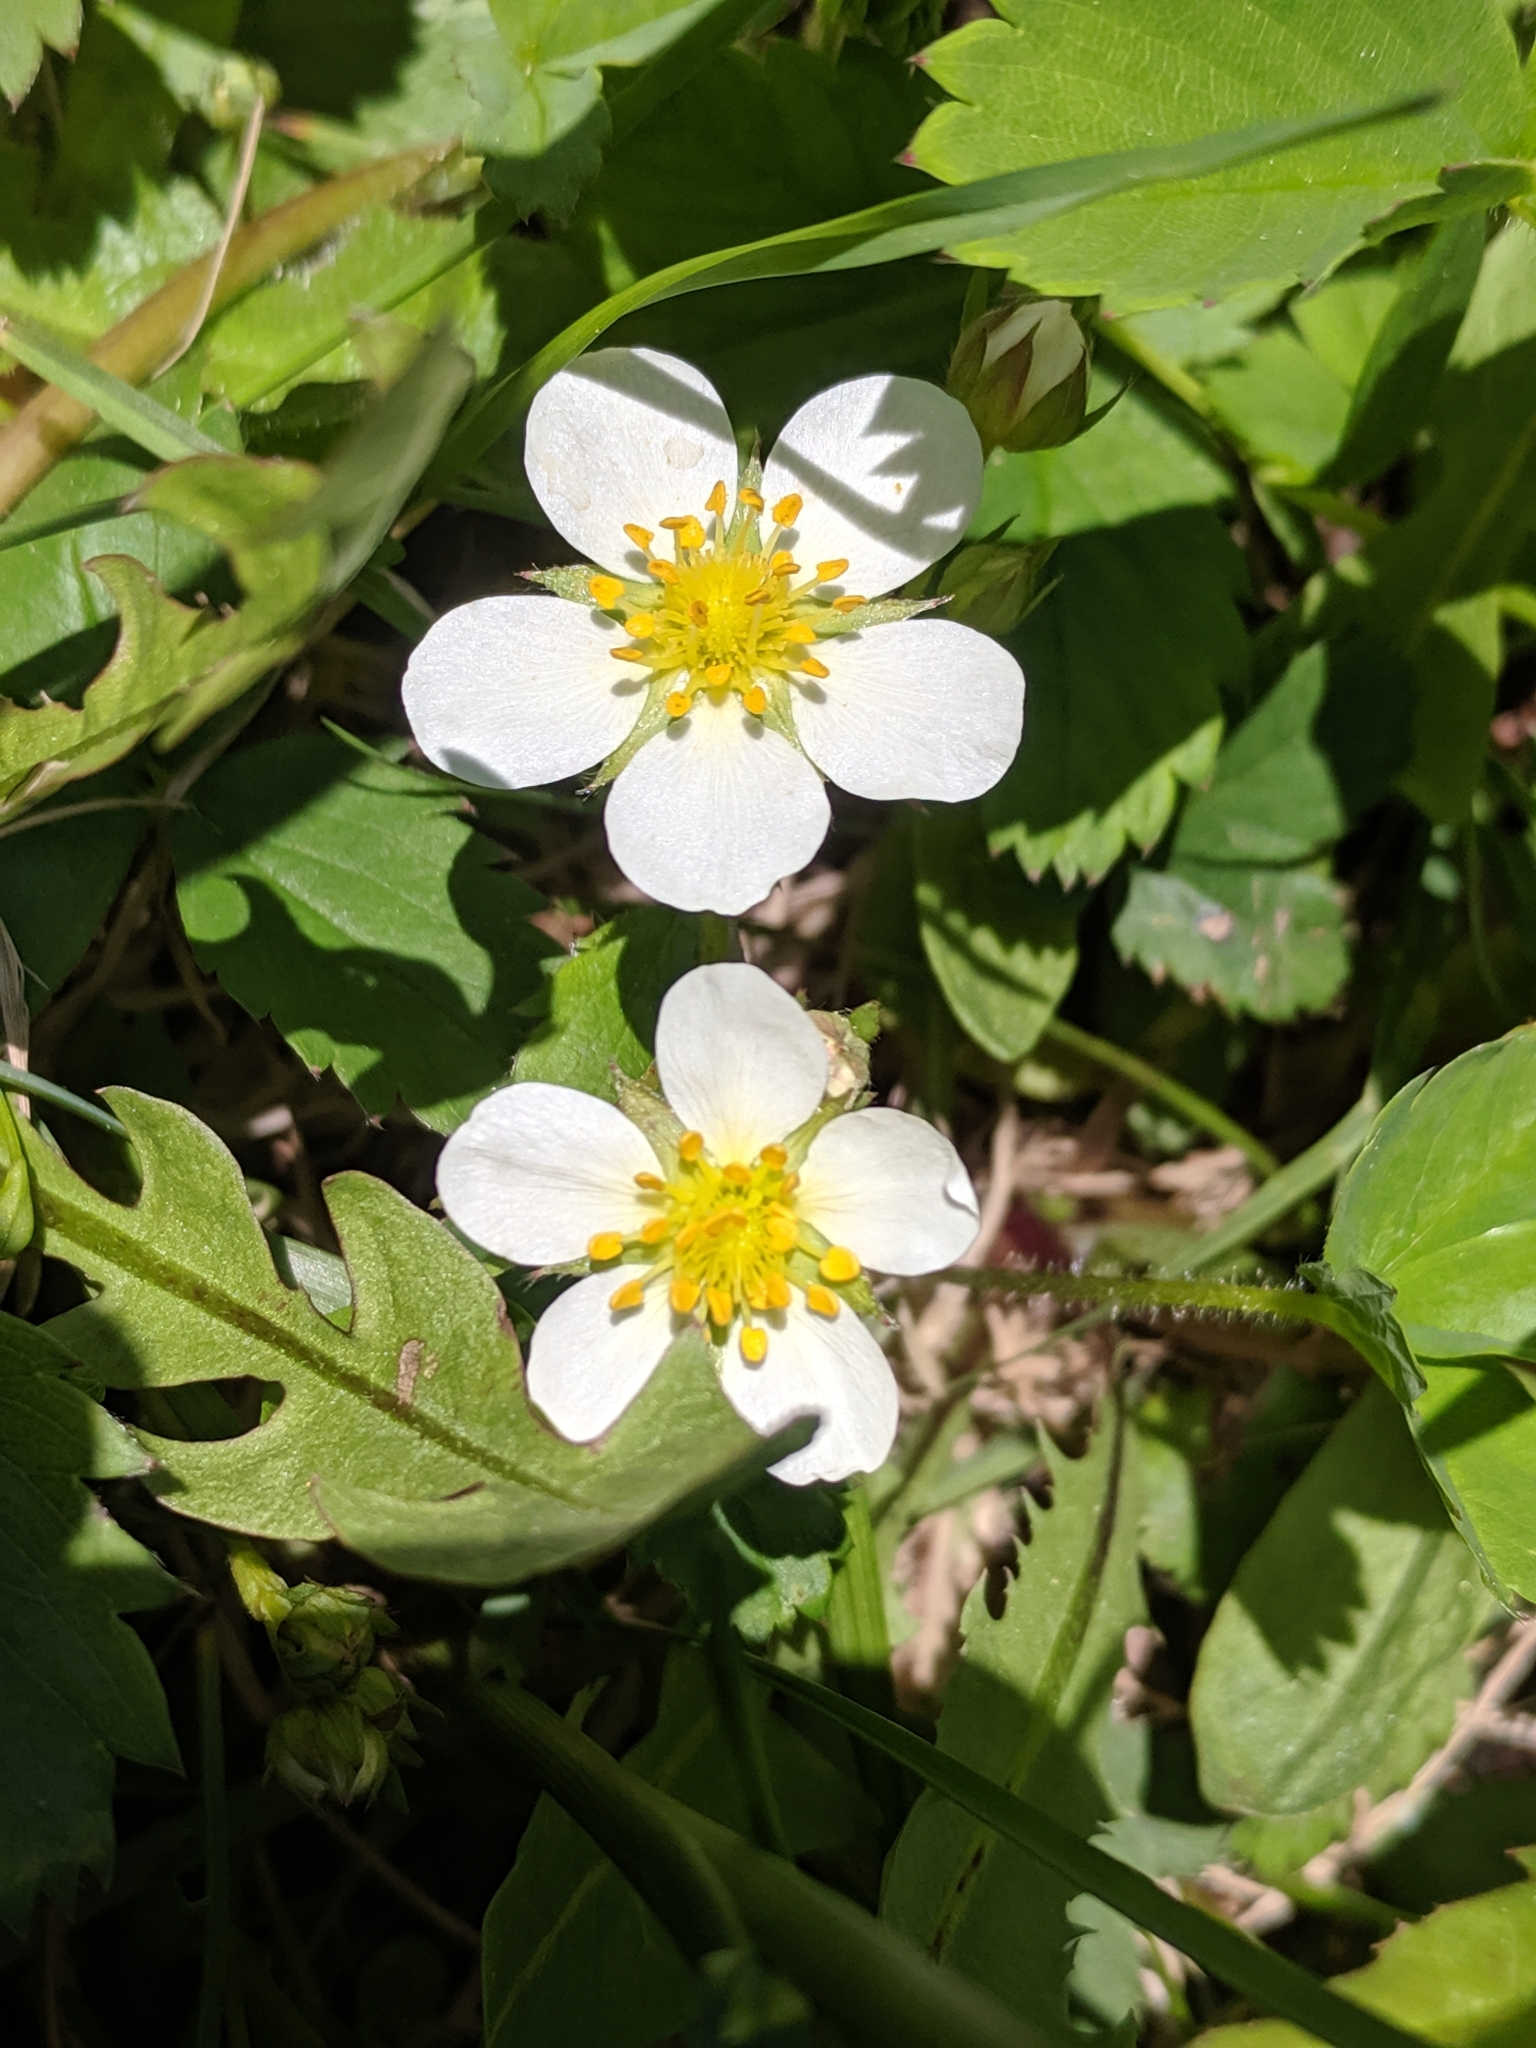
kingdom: Plantae
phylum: Tracheophyta
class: Magnoliopsida
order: Rosales
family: Rosaceae
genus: Fragaria
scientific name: Fragaria vesca
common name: Wild strawberry
